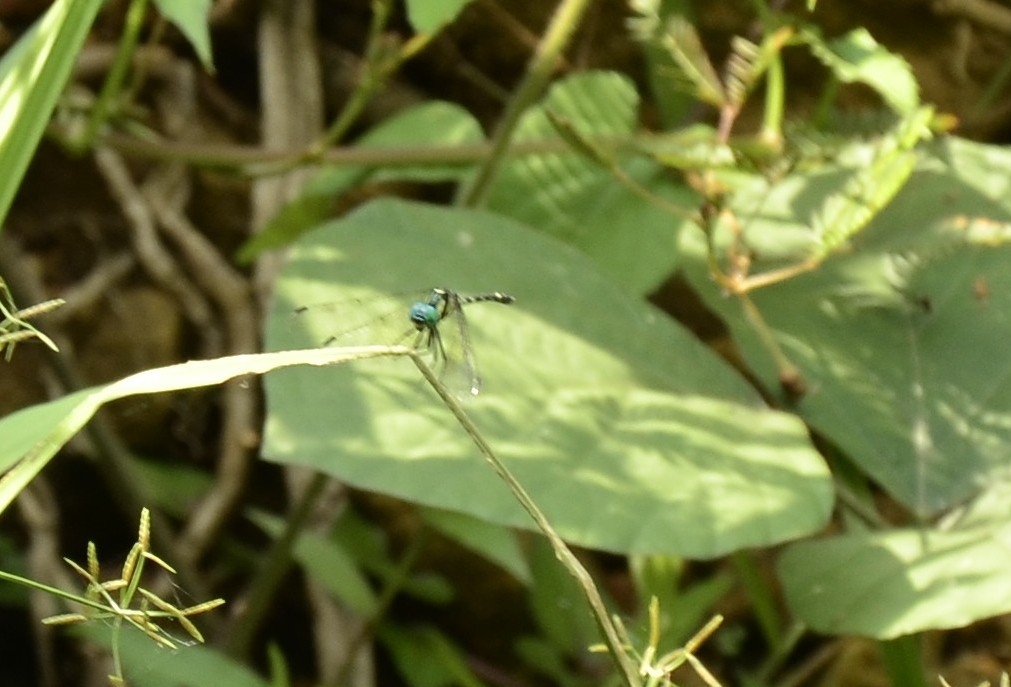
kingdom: Animalia
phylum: Arthropoda
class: Insecta
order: Odonata
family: Libellulidae
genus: Tetrathemis
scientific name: Tetrathemis platyptera
